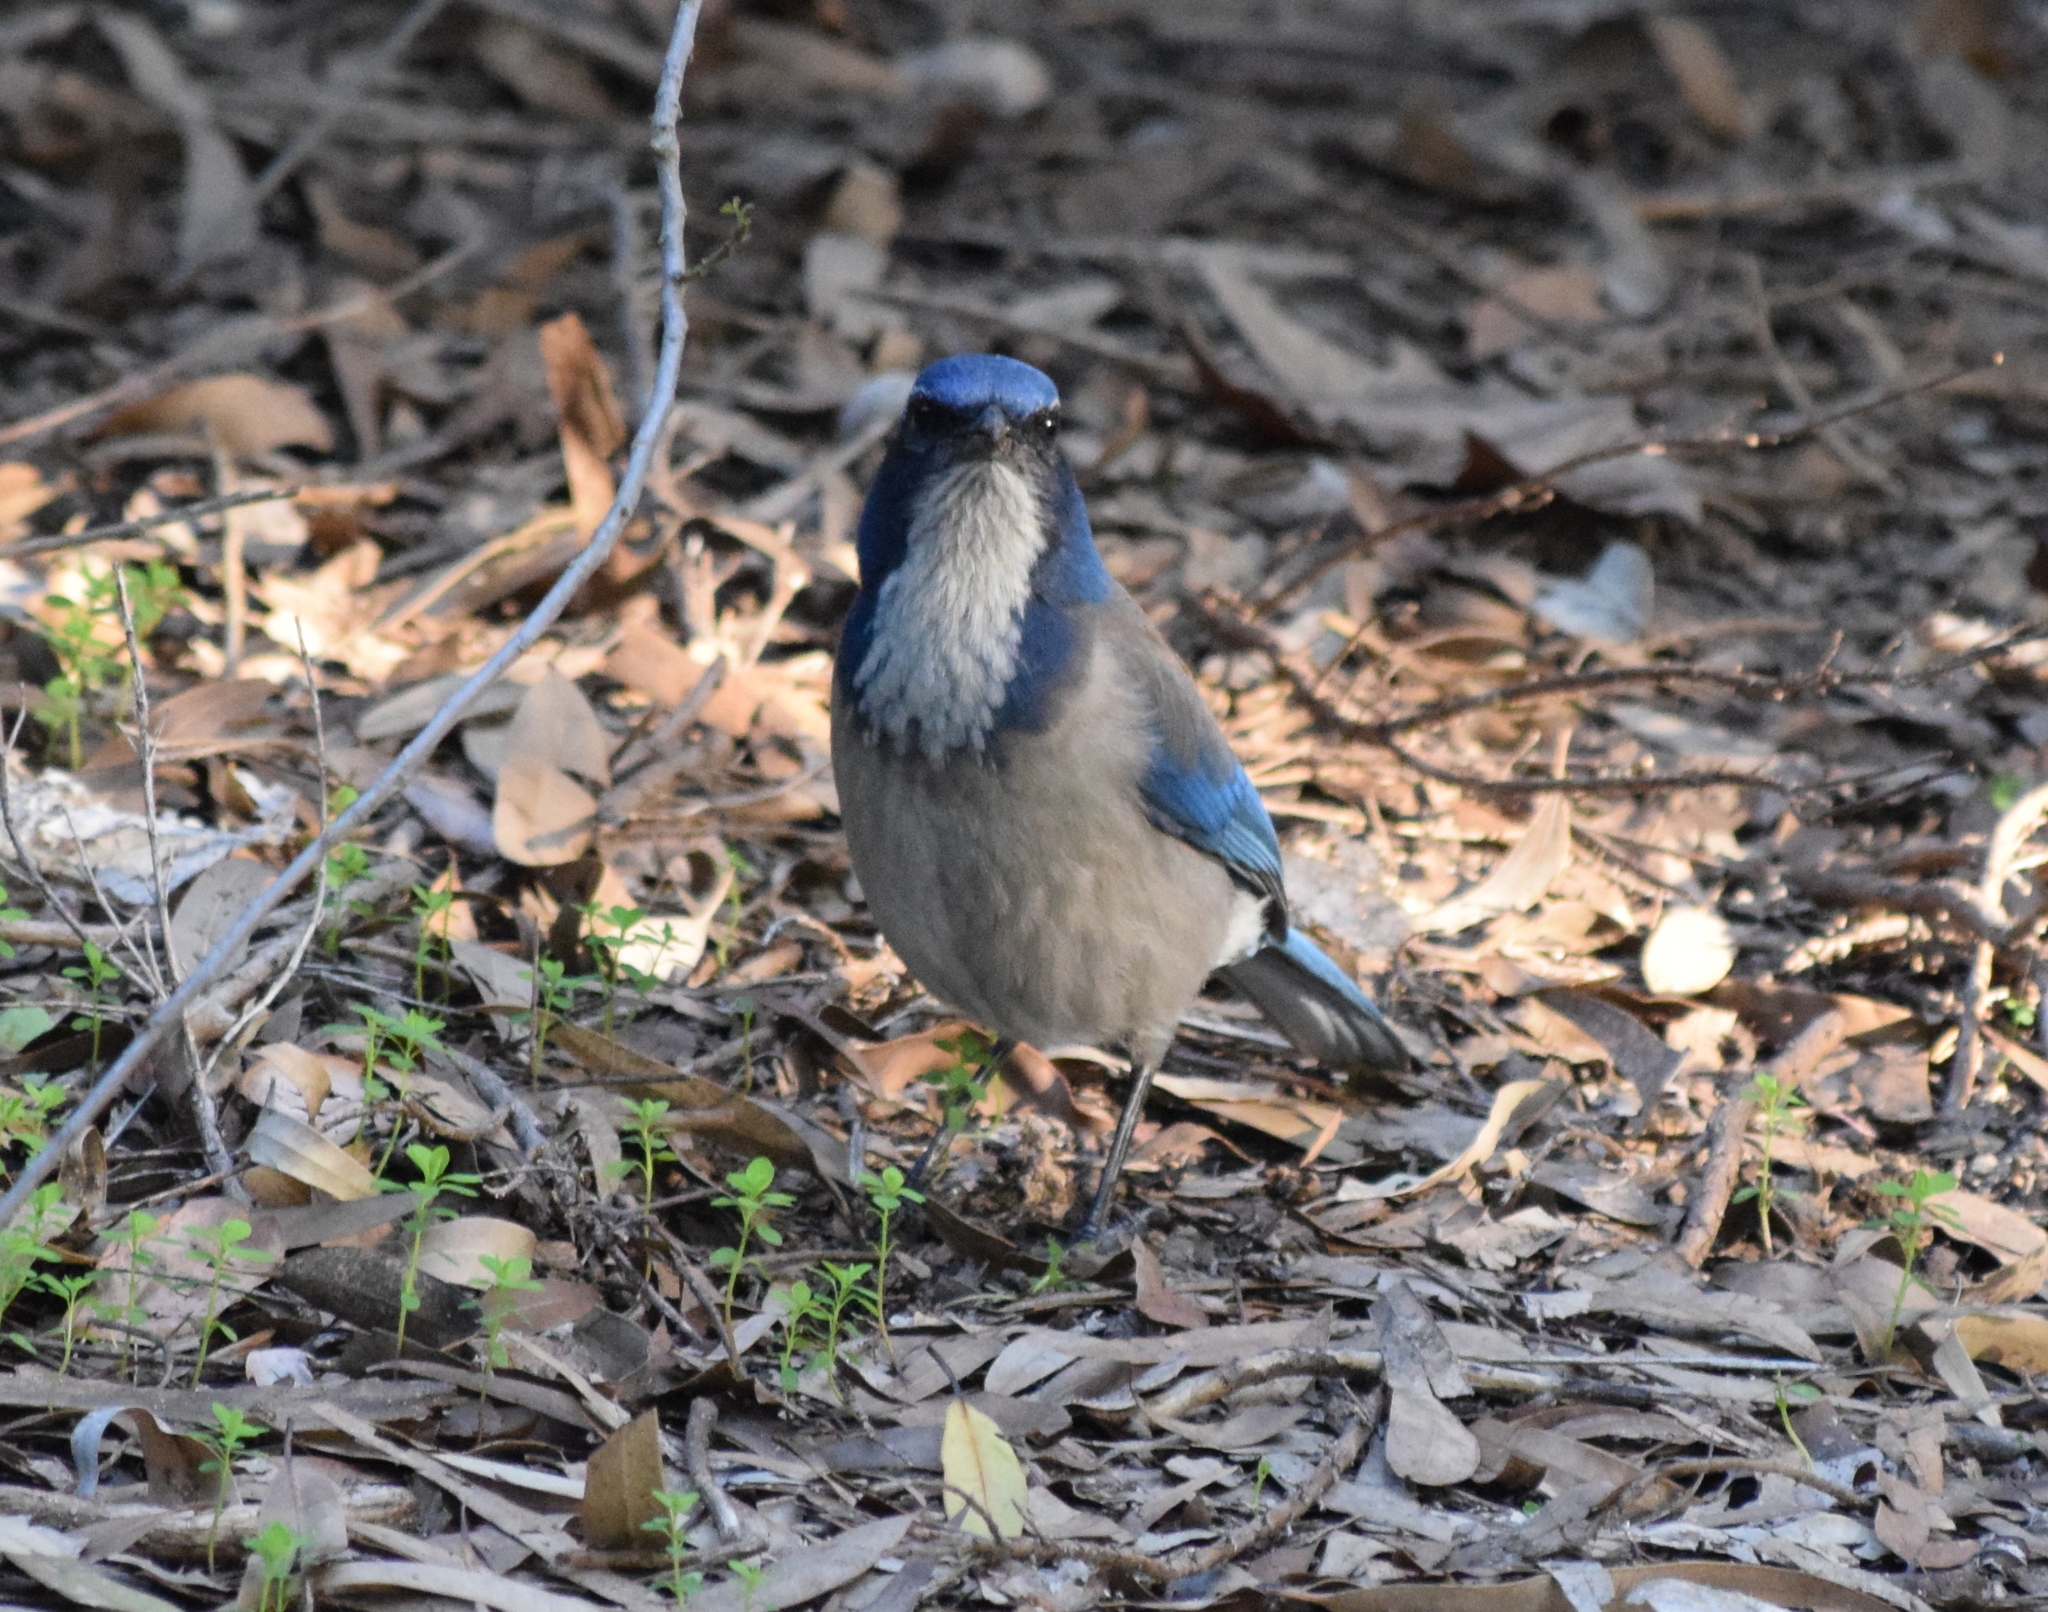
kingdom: Animalia
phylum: Chordata
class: Aves
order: Passeriformes
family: Corvidae
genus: Aphelocoma
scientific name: Aphelocoma californica
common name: California scrub-jay
